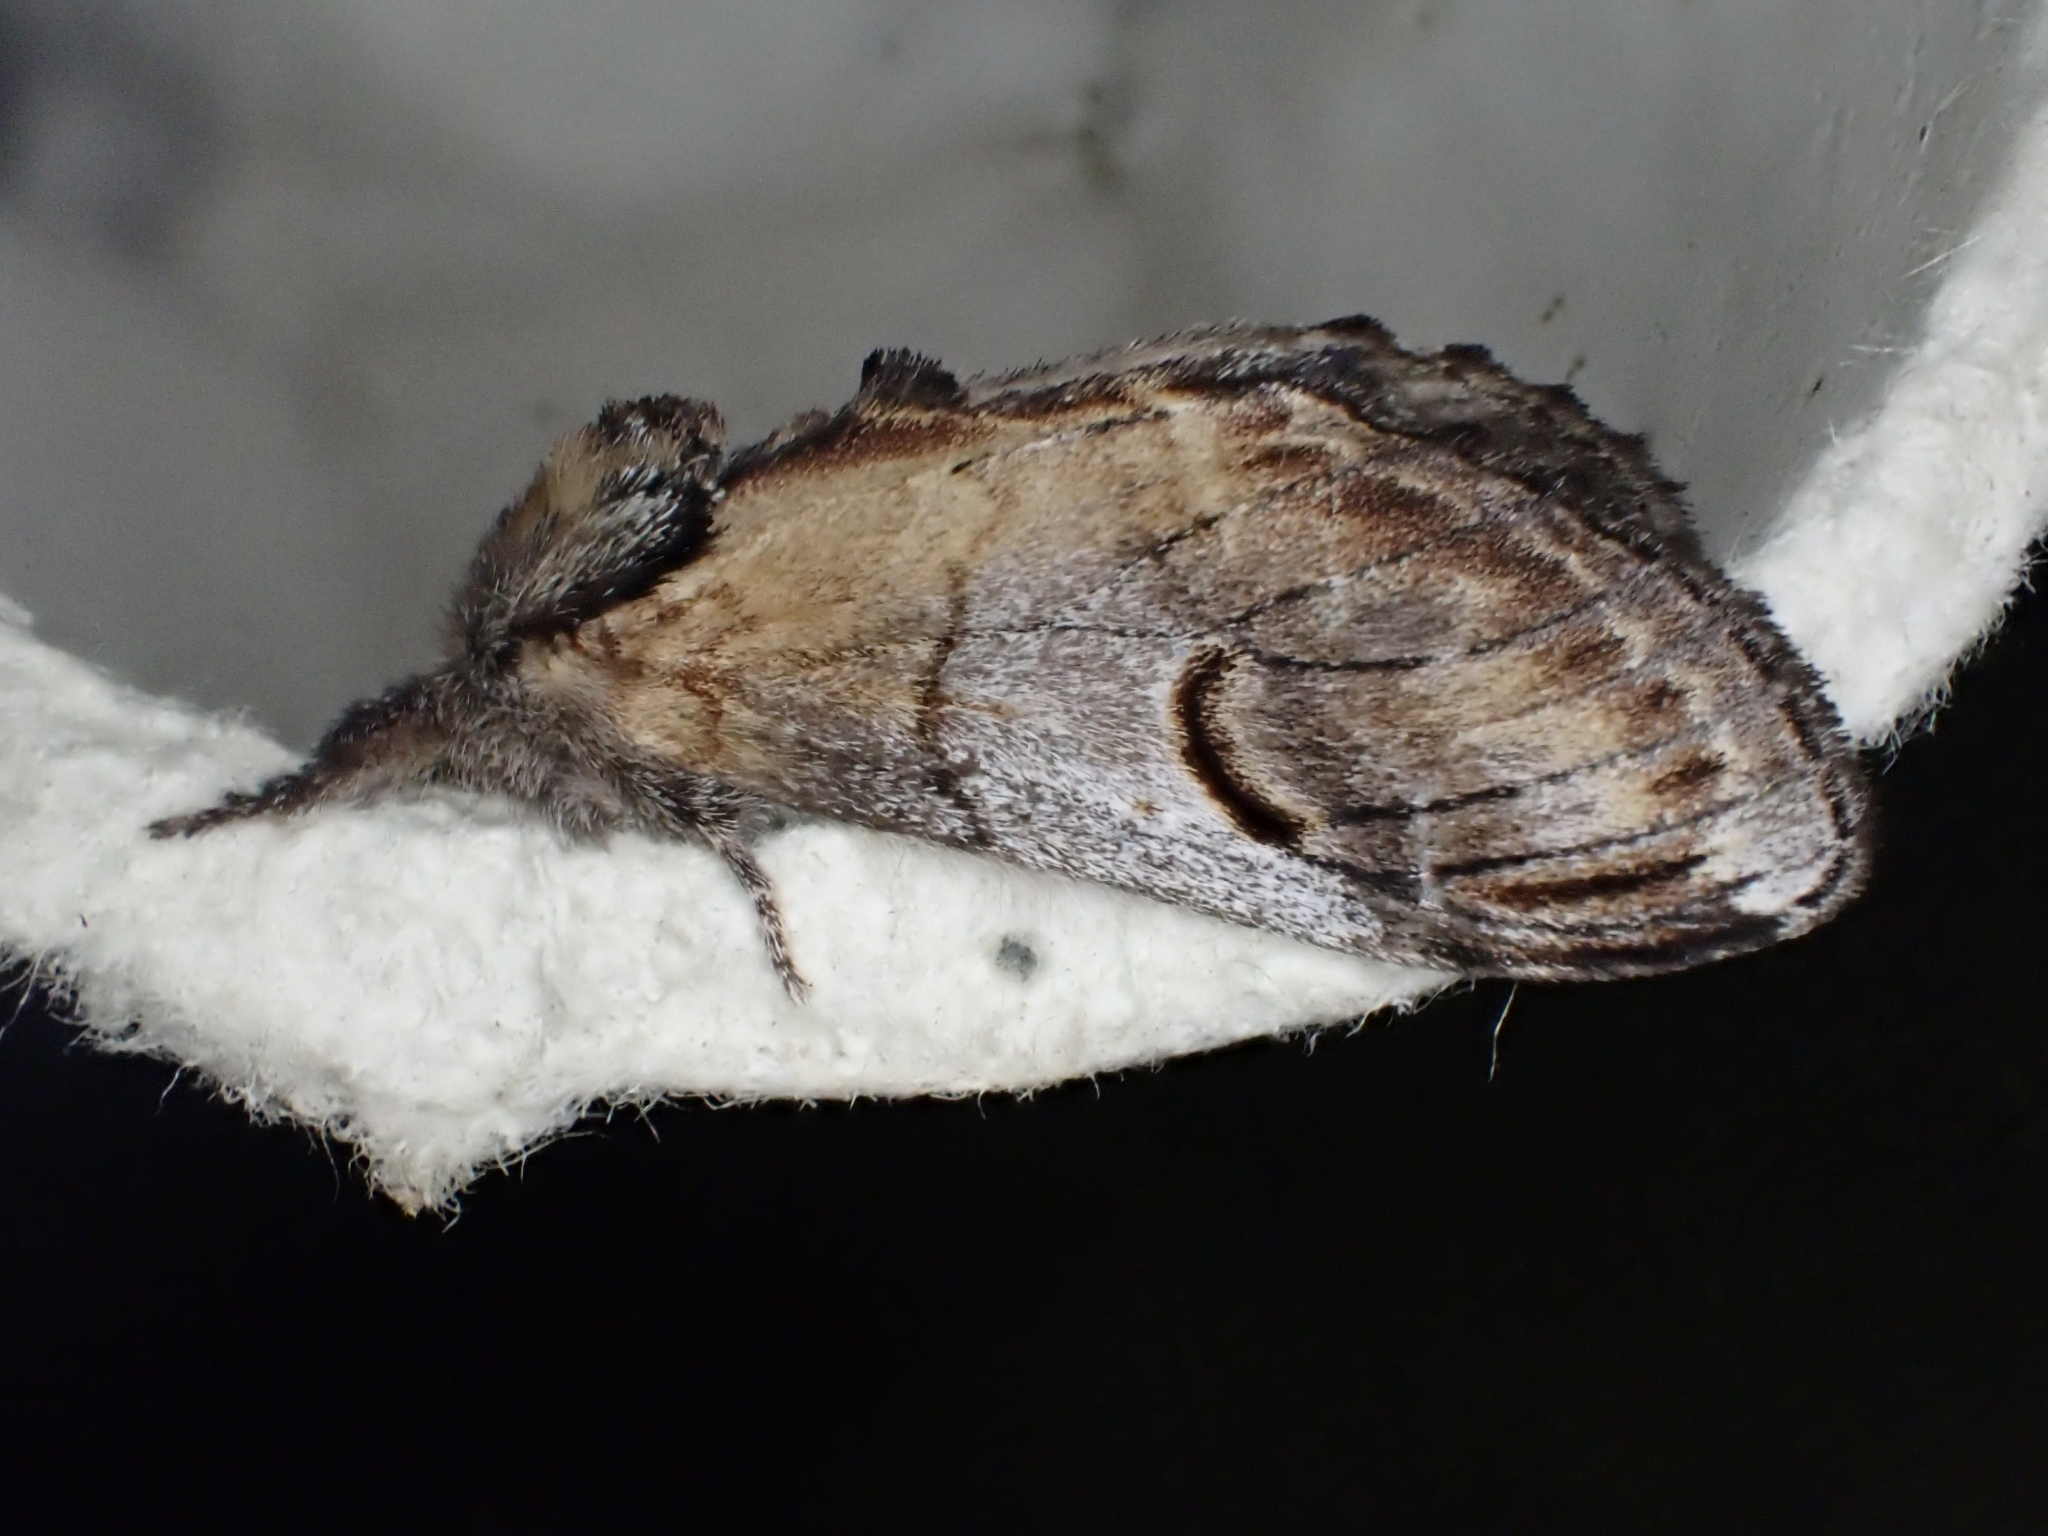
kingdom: Animalia
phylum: Arthropoda
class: Insecta
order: Lepidoptera
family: Notodontidae
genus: Notodonta
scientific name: Notodonta ziczac
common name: Pebble prominent
